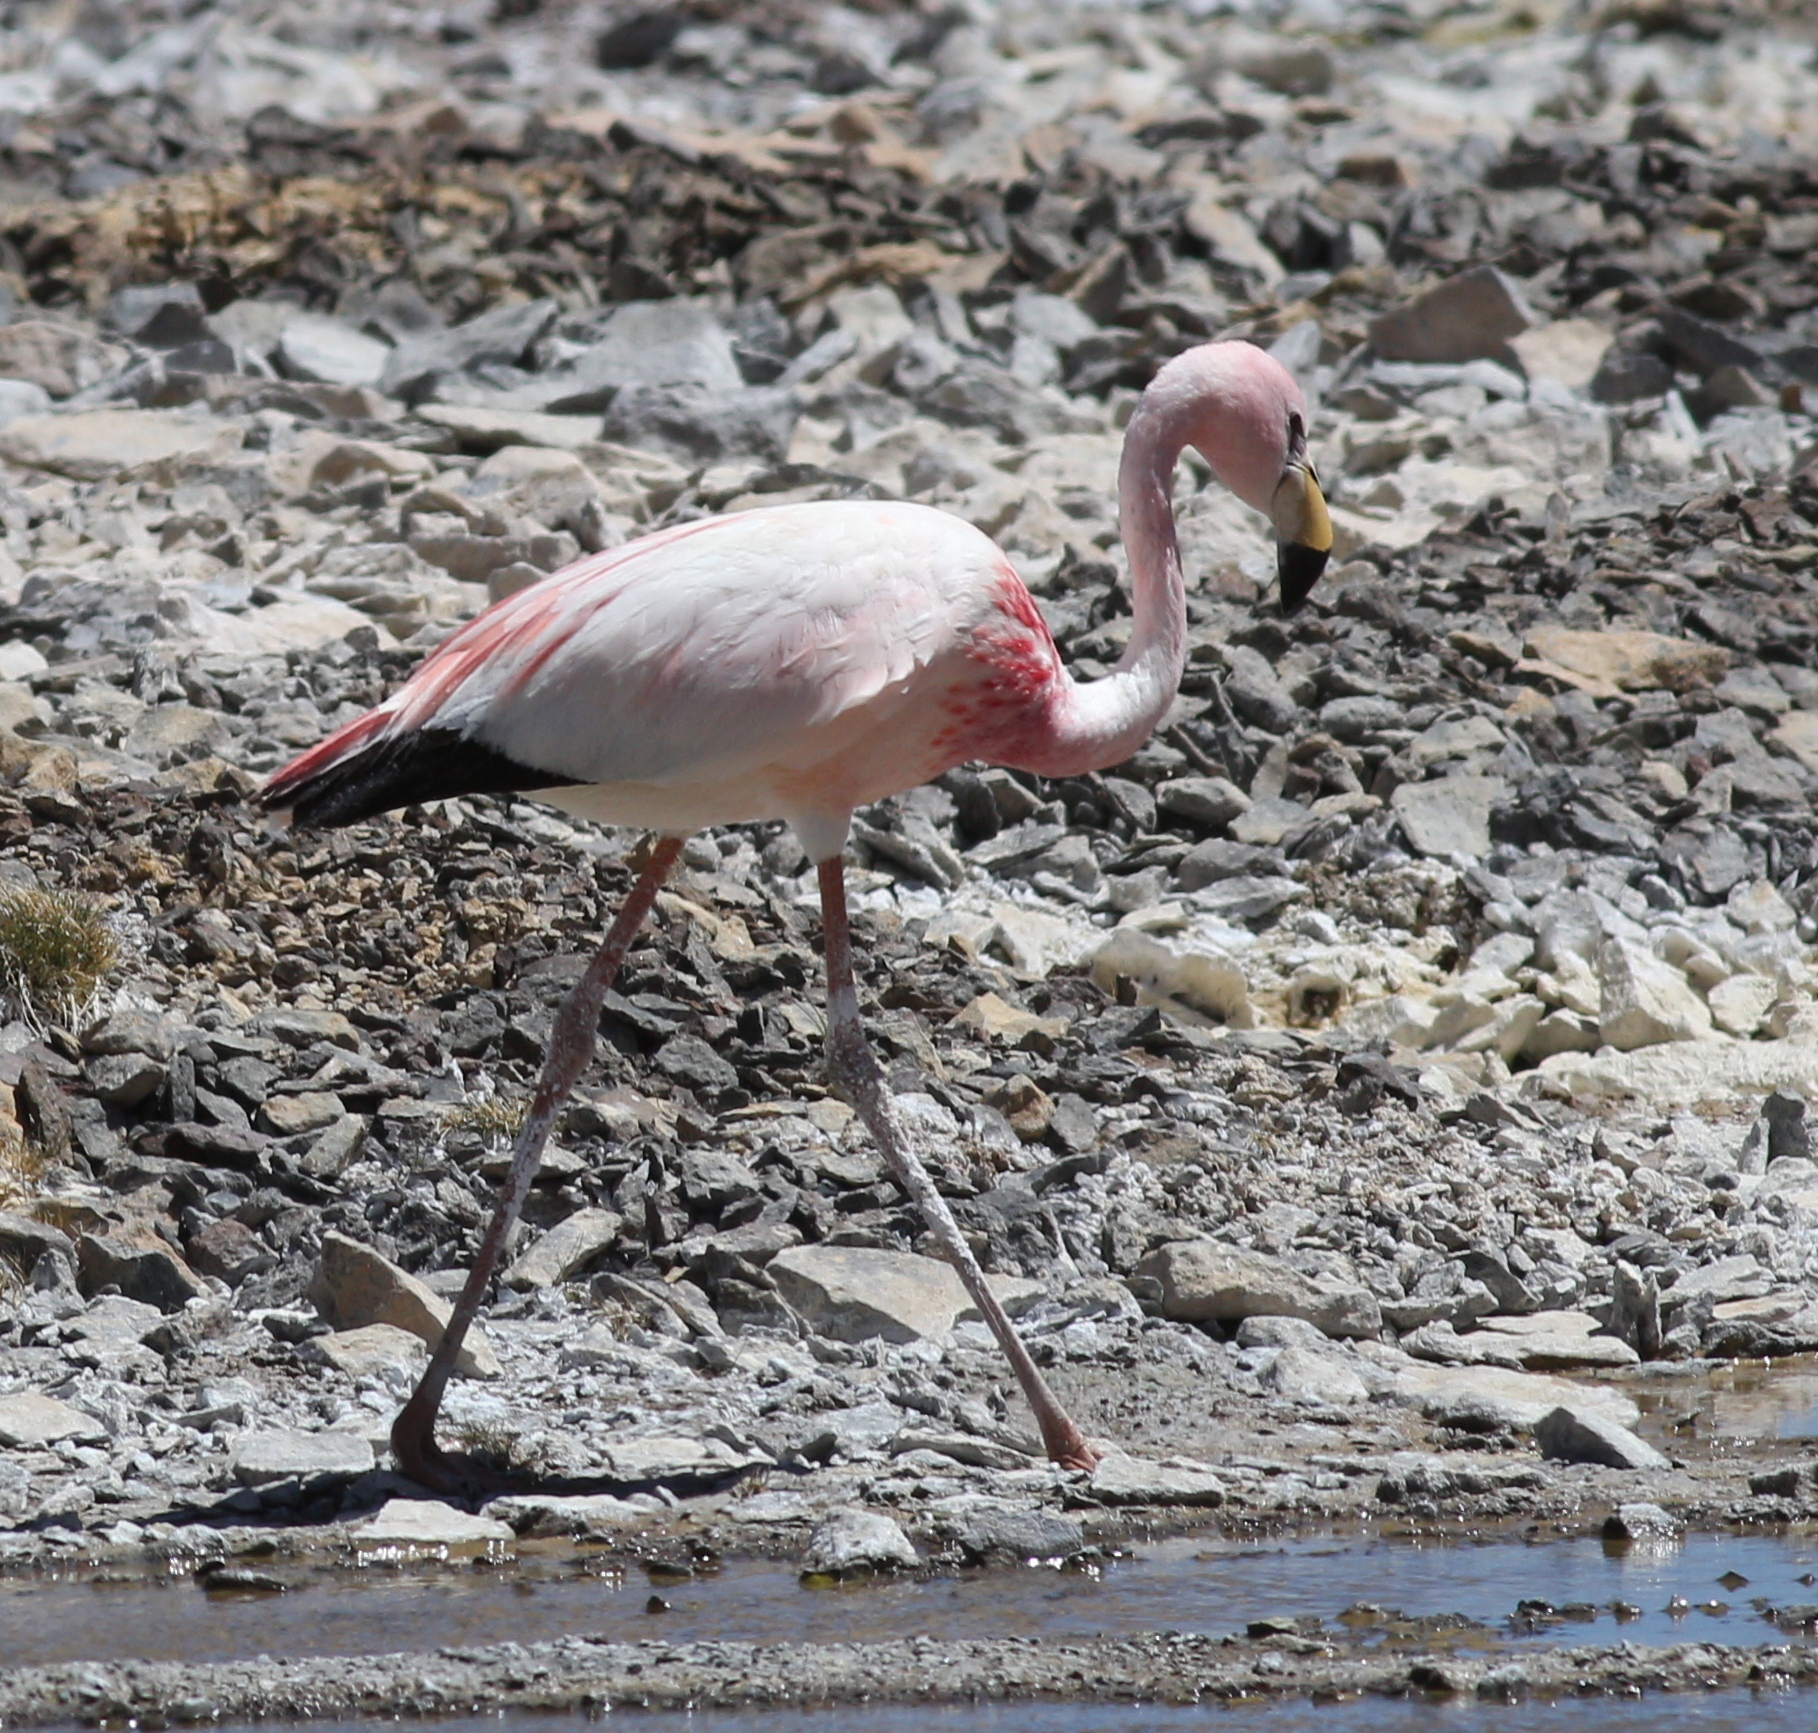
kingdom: Animalia
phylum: Chordata
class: Aves
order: Phoenicopteriformes
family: Phoenicopteridae
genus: Phoenicoparrus
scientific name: Phoenicoparrus jamesi
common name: James's flamingo
